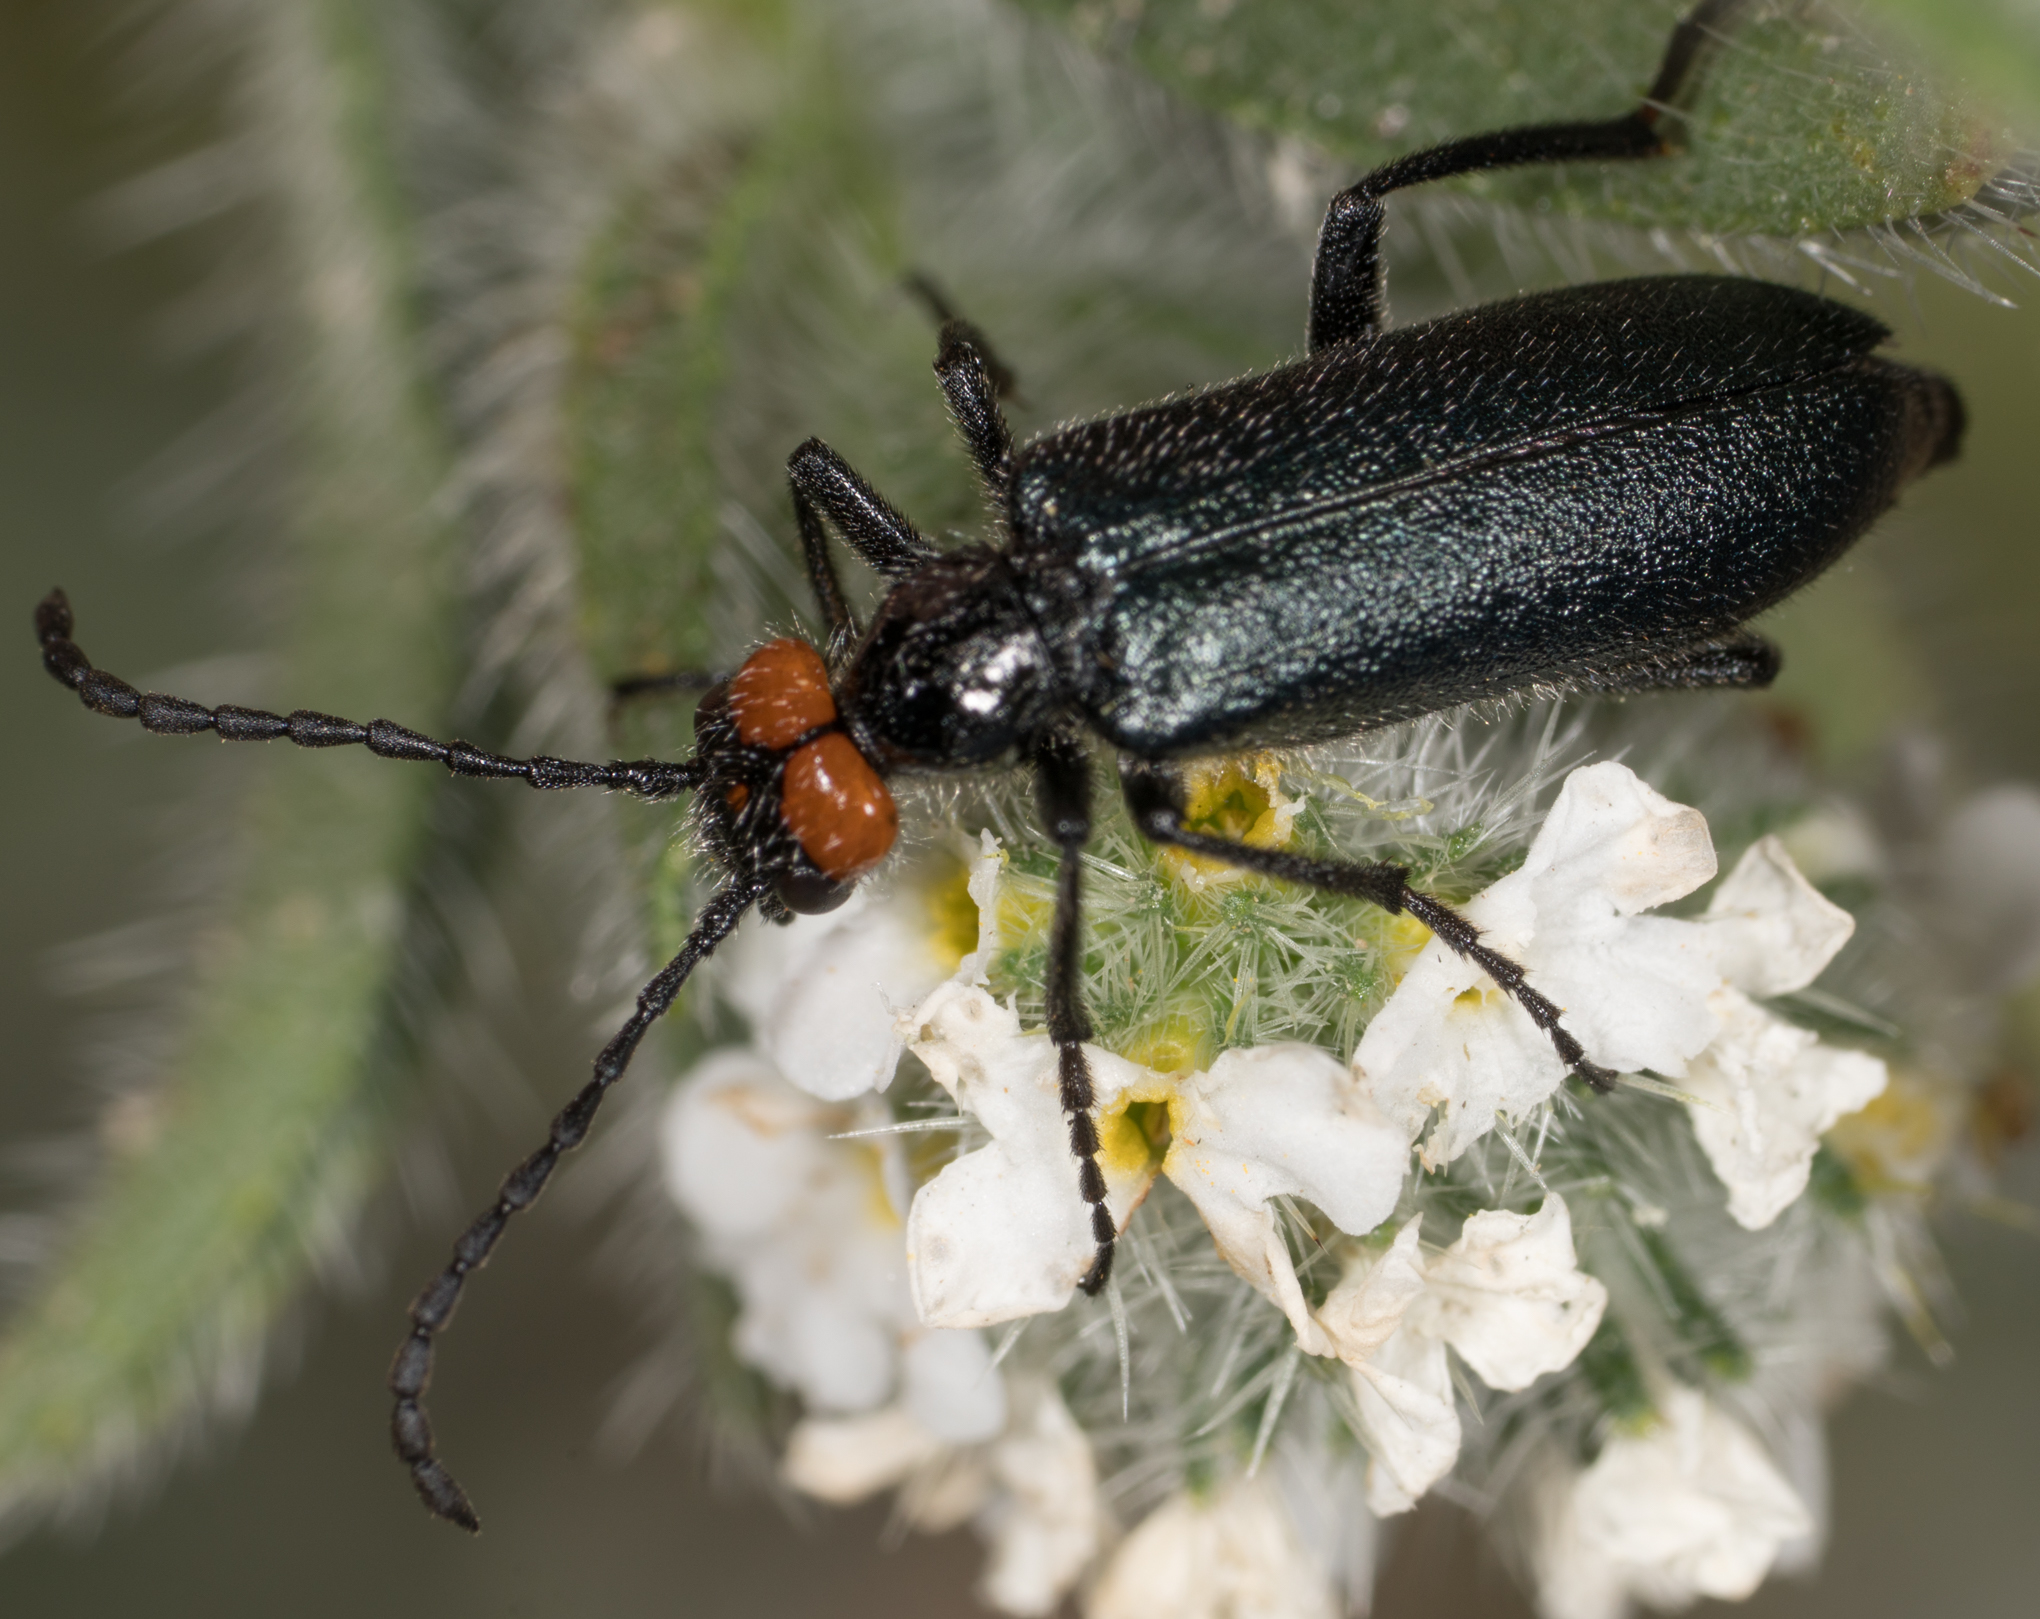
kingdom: Animalia
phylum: Arthropoda
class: Insecta
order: Coleoptera
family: Meloidae
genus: Lytta
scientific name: Lytta auriculata
